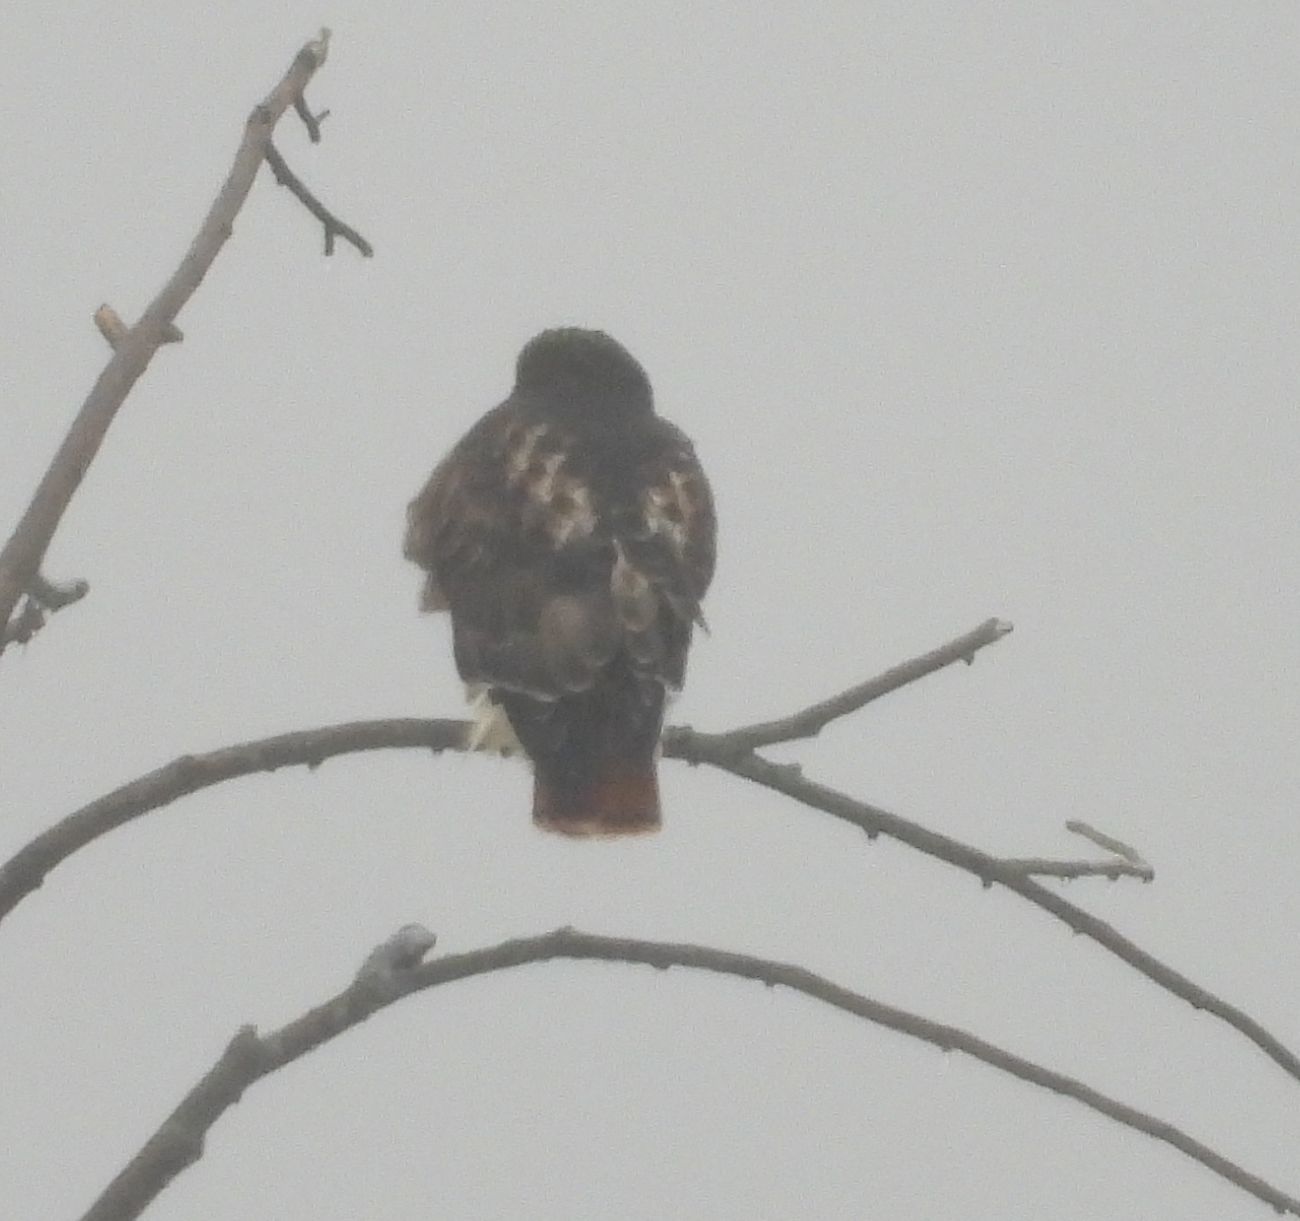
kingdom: Animalia
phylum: Chordata
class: Aves
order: Accipitriformes
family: Accipitridae
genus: Buteo
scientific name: Buteo jamaicensis
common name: Red-tailed hawk
